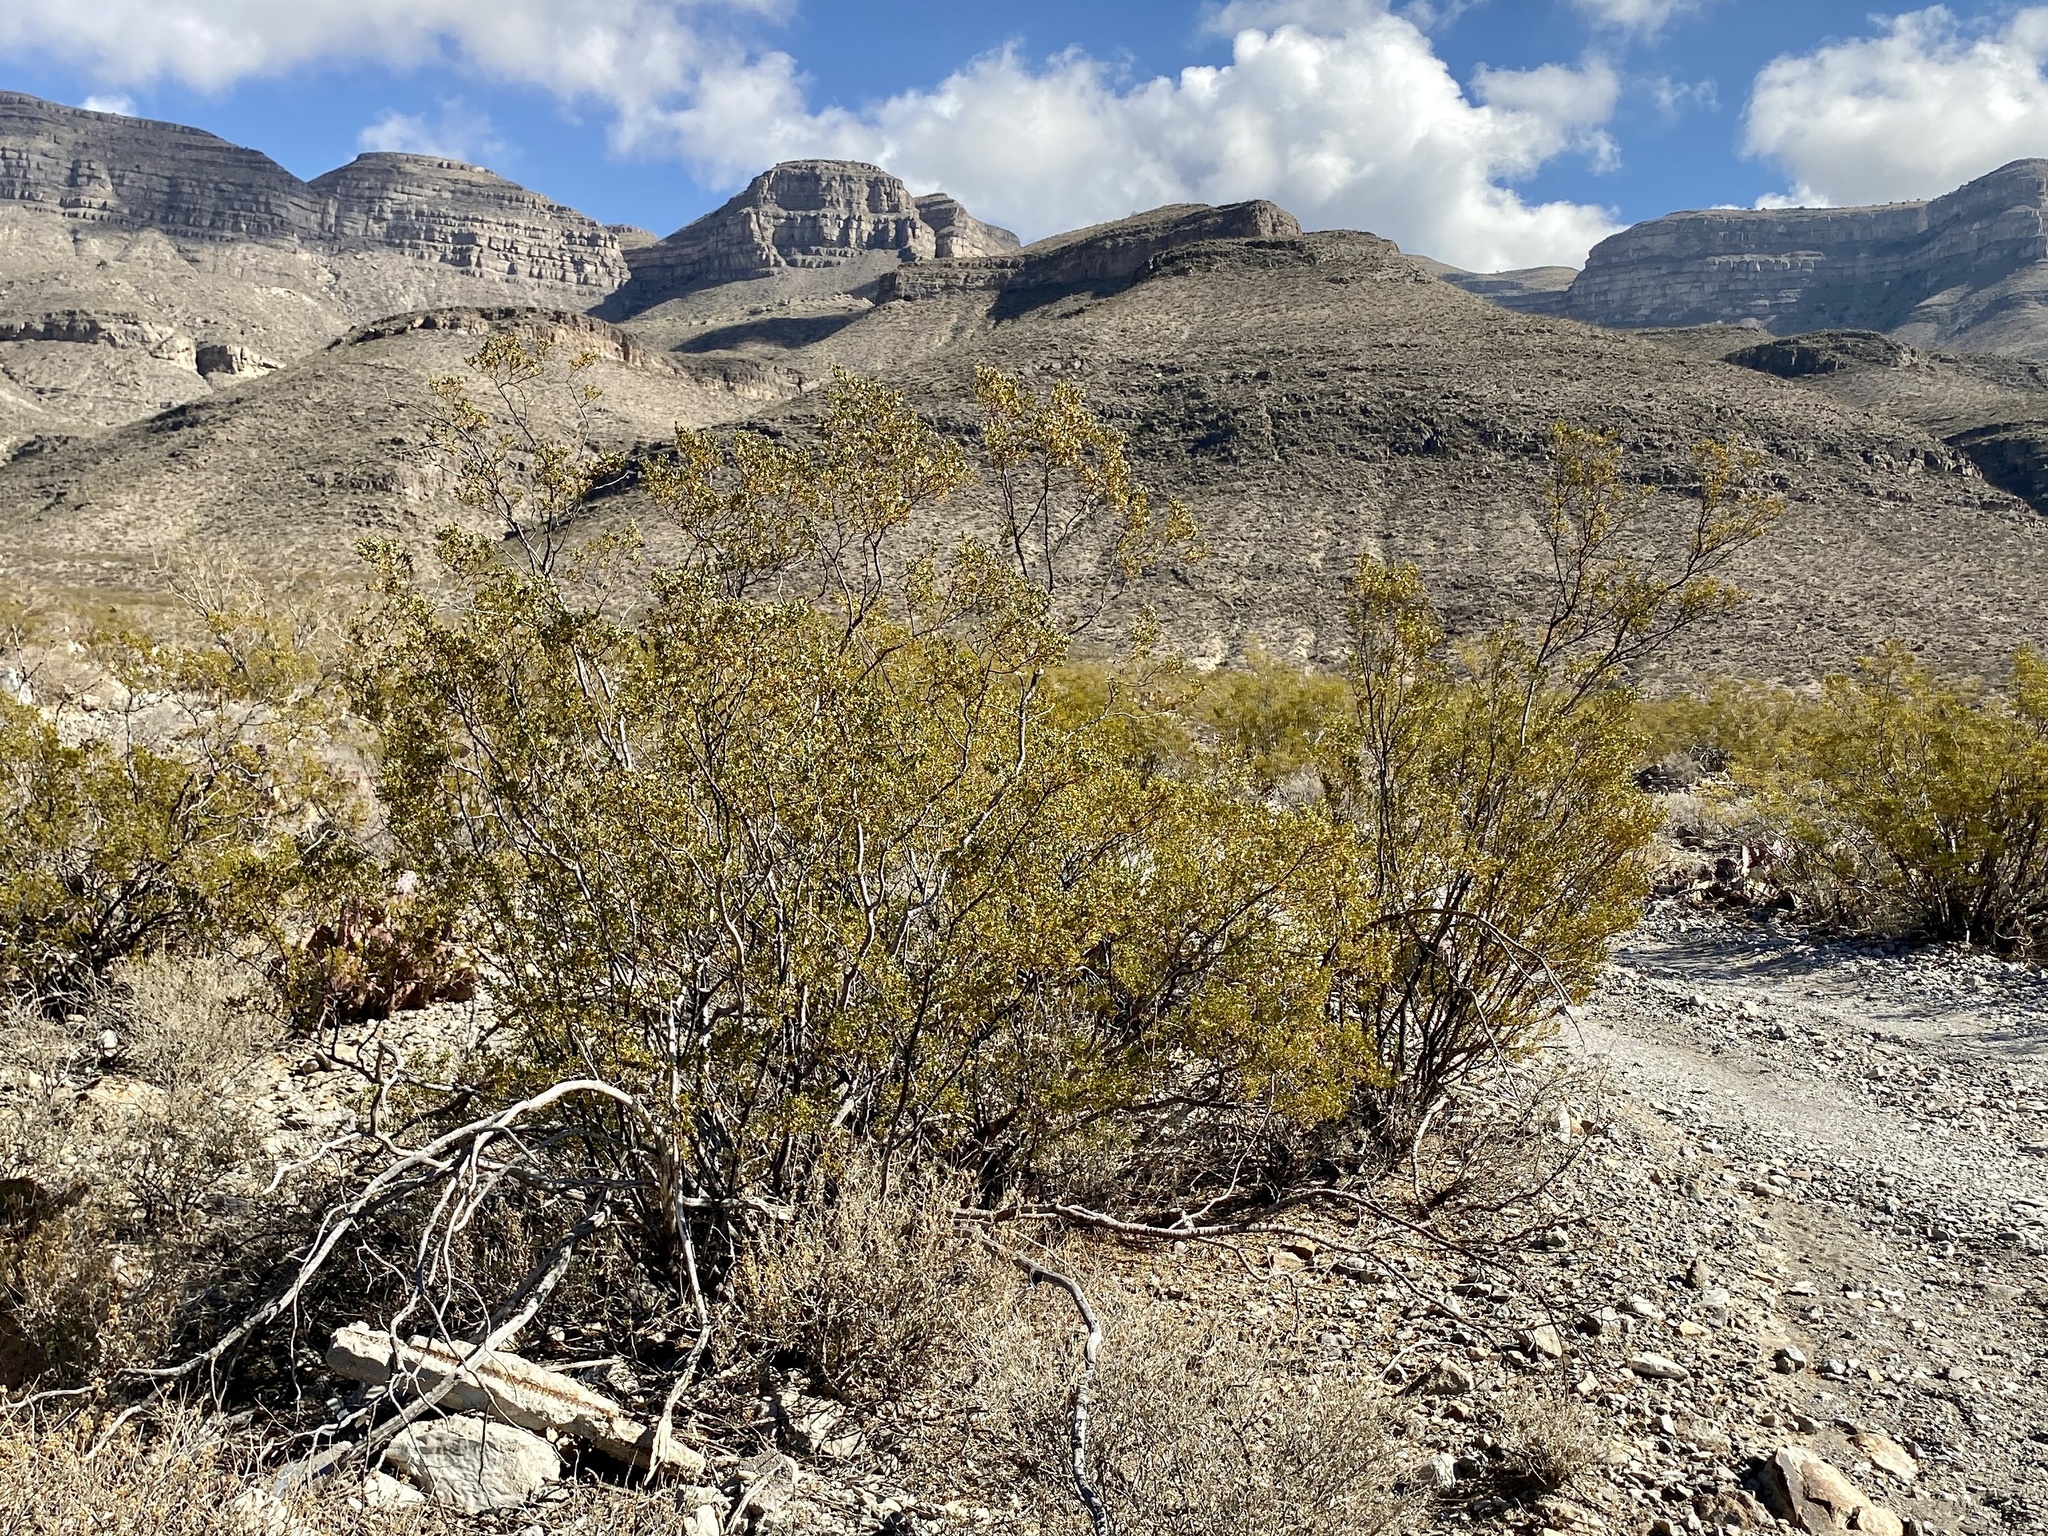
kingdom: Plantae
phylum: Tracheophyta
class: Magnoliopsida
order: Zygophyllales
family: Zygophyllaceae
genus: Larrea
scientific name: Larrea tridentata
